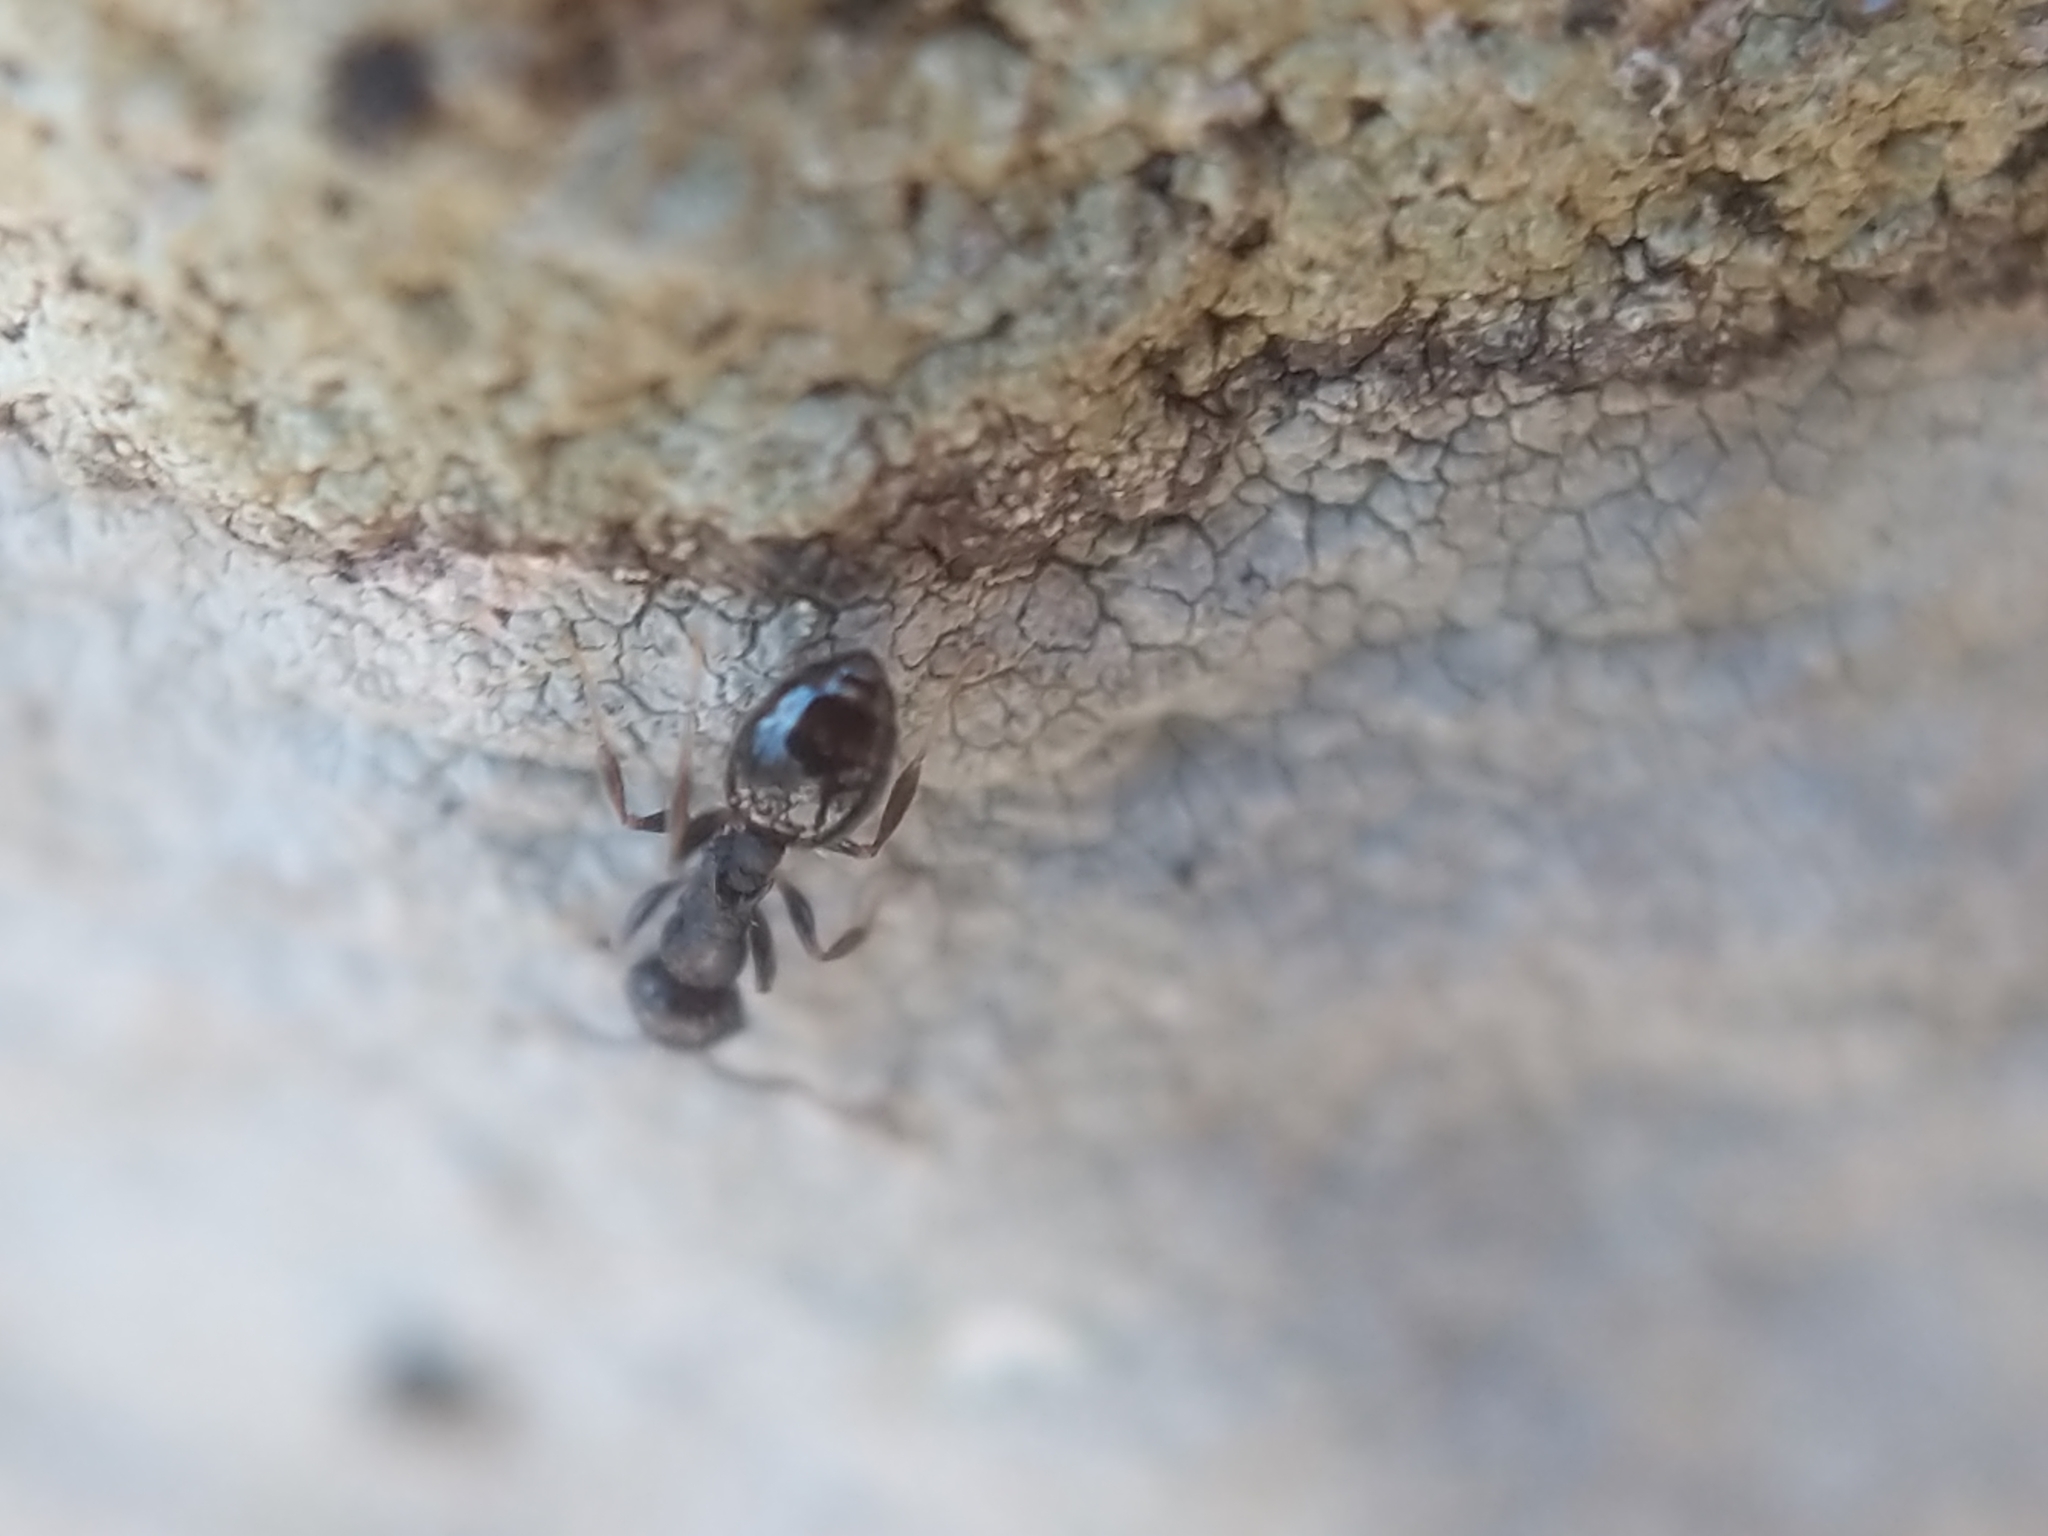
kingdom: Animalia
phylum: Arthropoda
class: Insecta
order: Hymenoptera
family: Formicidae
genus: Temnothorax
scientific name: Temnothorax longispinosus
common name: Long-spined acorn ant
